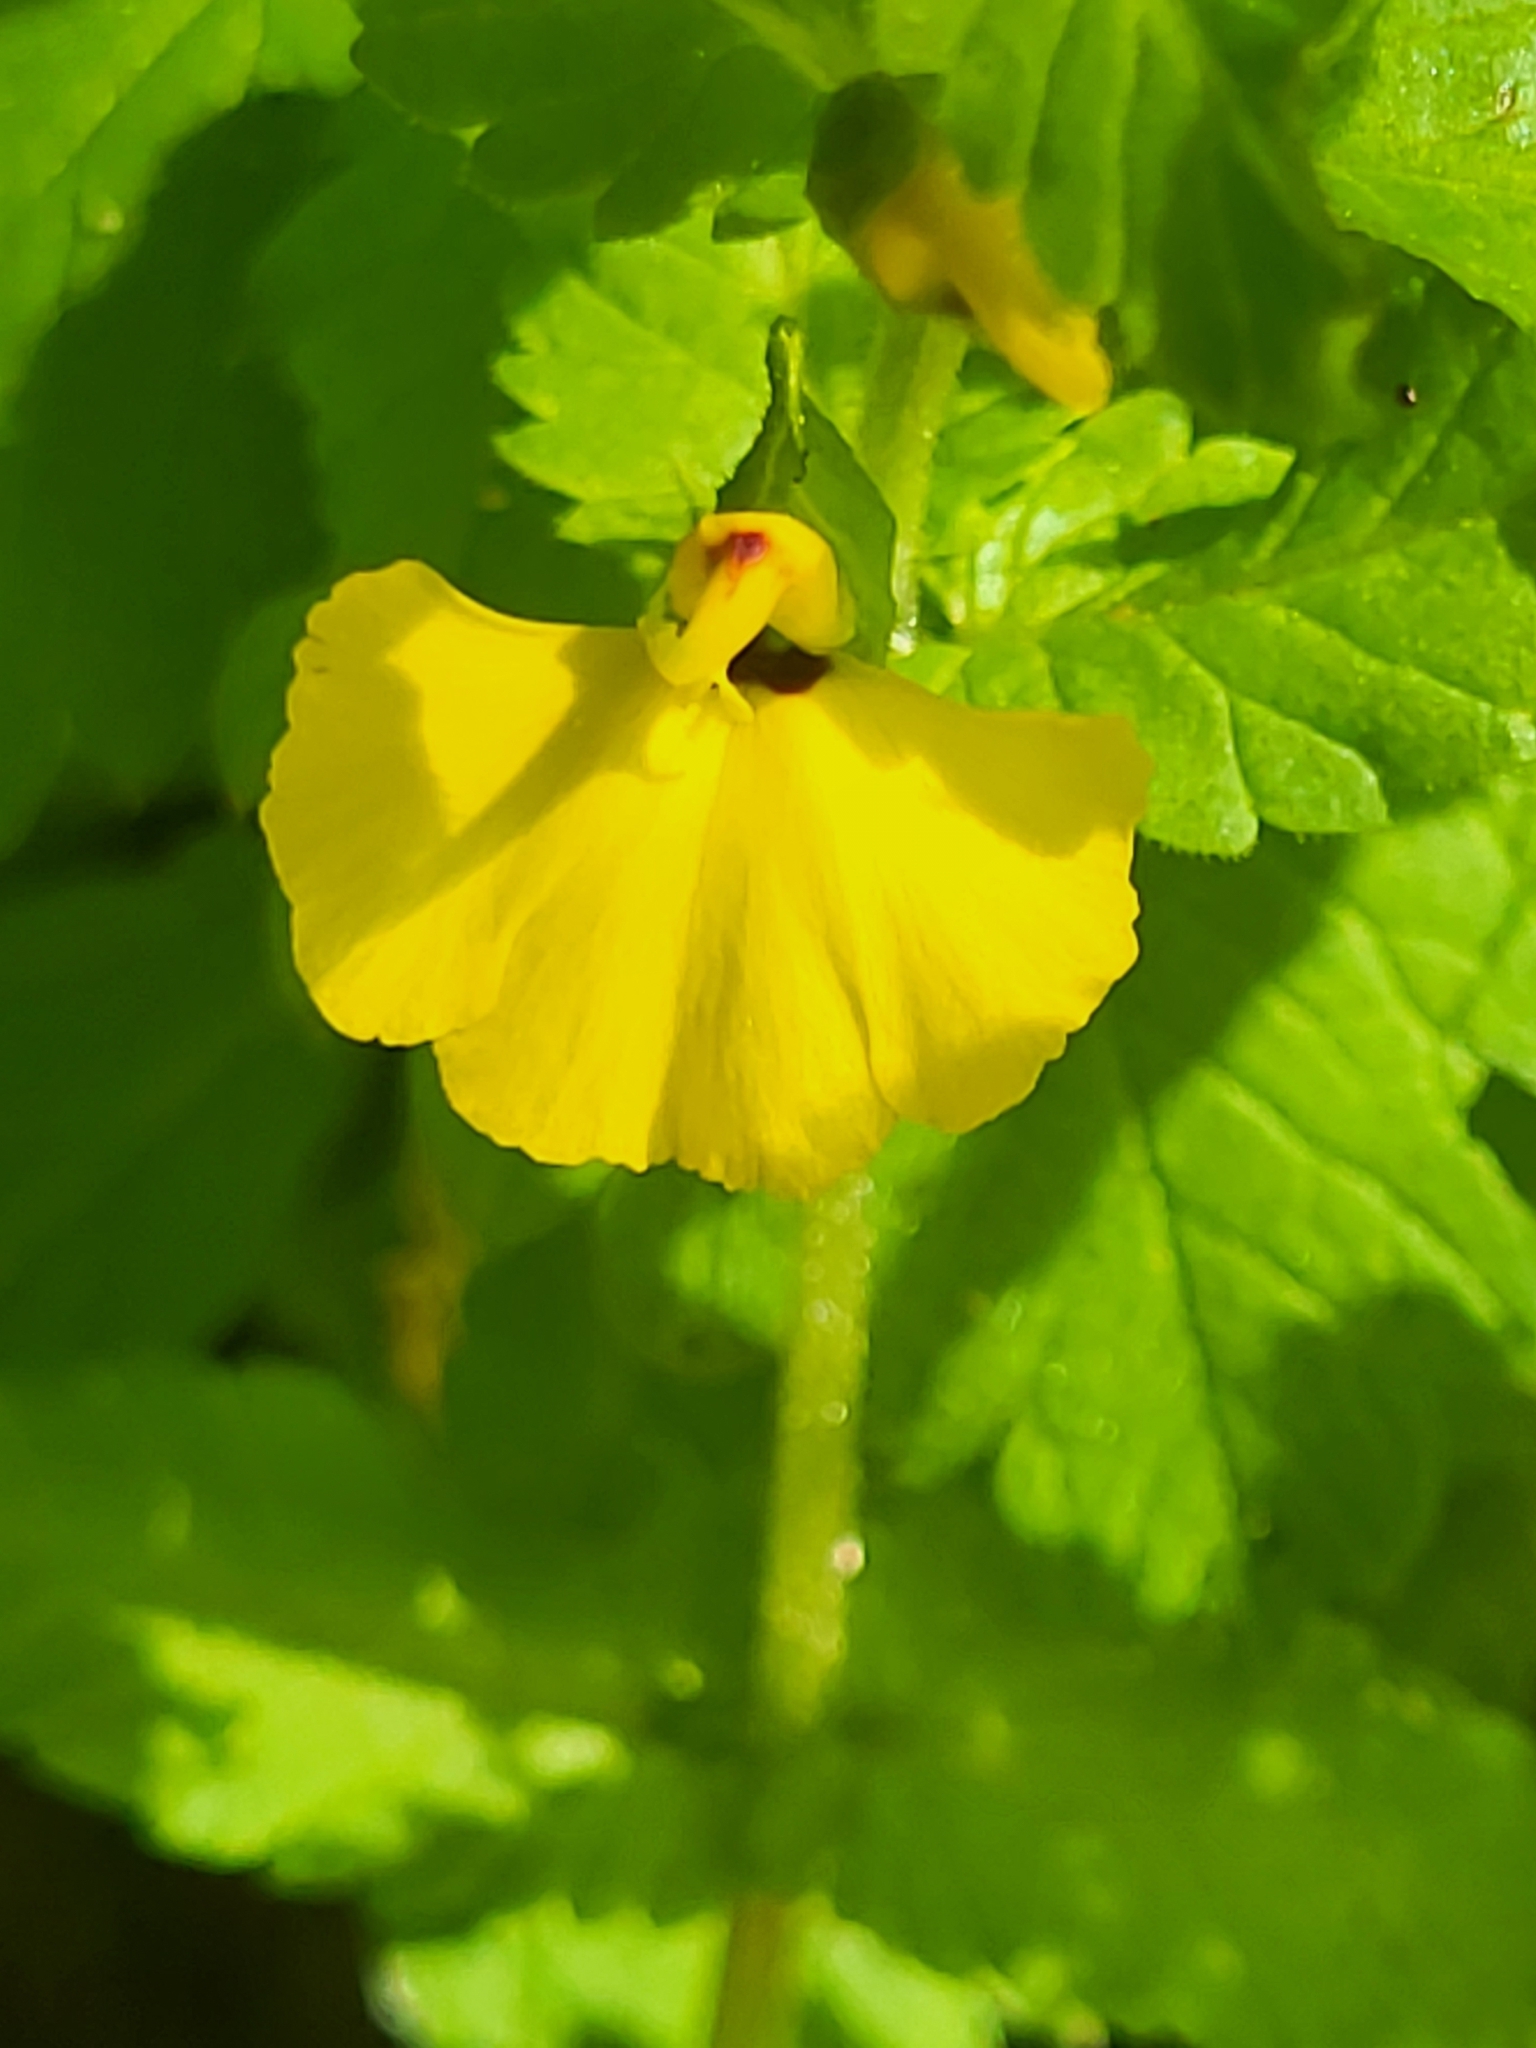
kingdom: Plantae
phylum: Tracheophyta
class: Magnoliopsida
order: Lamiales
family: Orobanchaceae
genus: Rhynchocorys
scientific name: Rhynchocorys elephas
